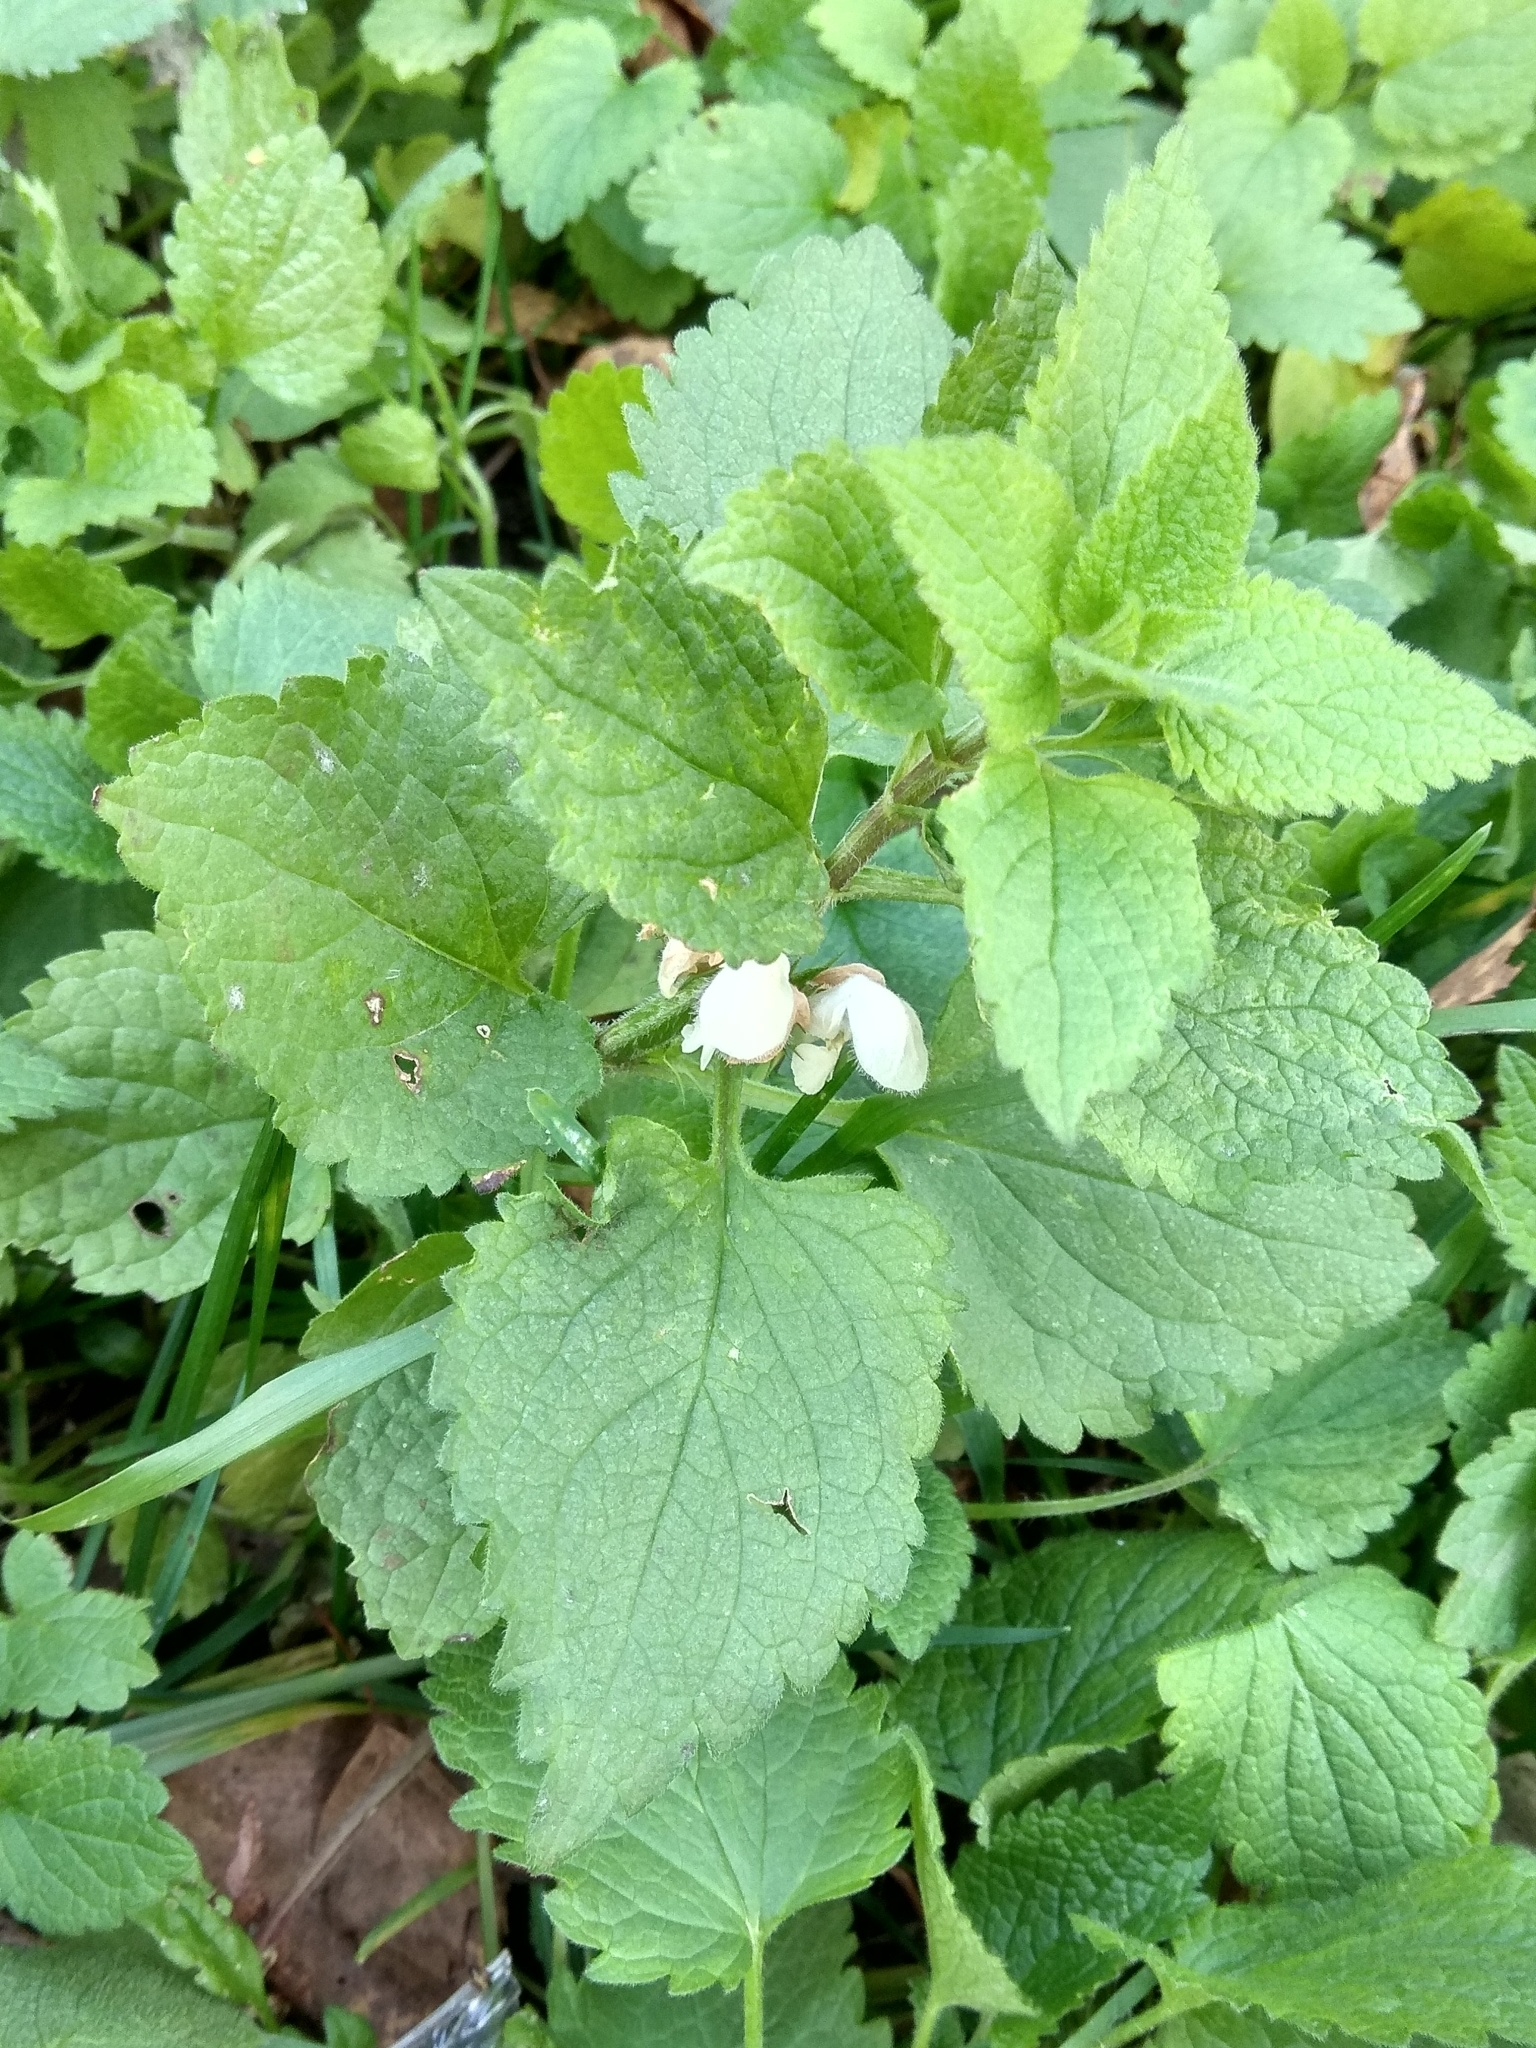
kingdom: Plantae
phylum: Tracheophyta
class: Magnoliopsida
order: Lamiales
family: Lamiaceae
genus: Lamium
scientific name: Lamium album
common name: White dead-nettle
